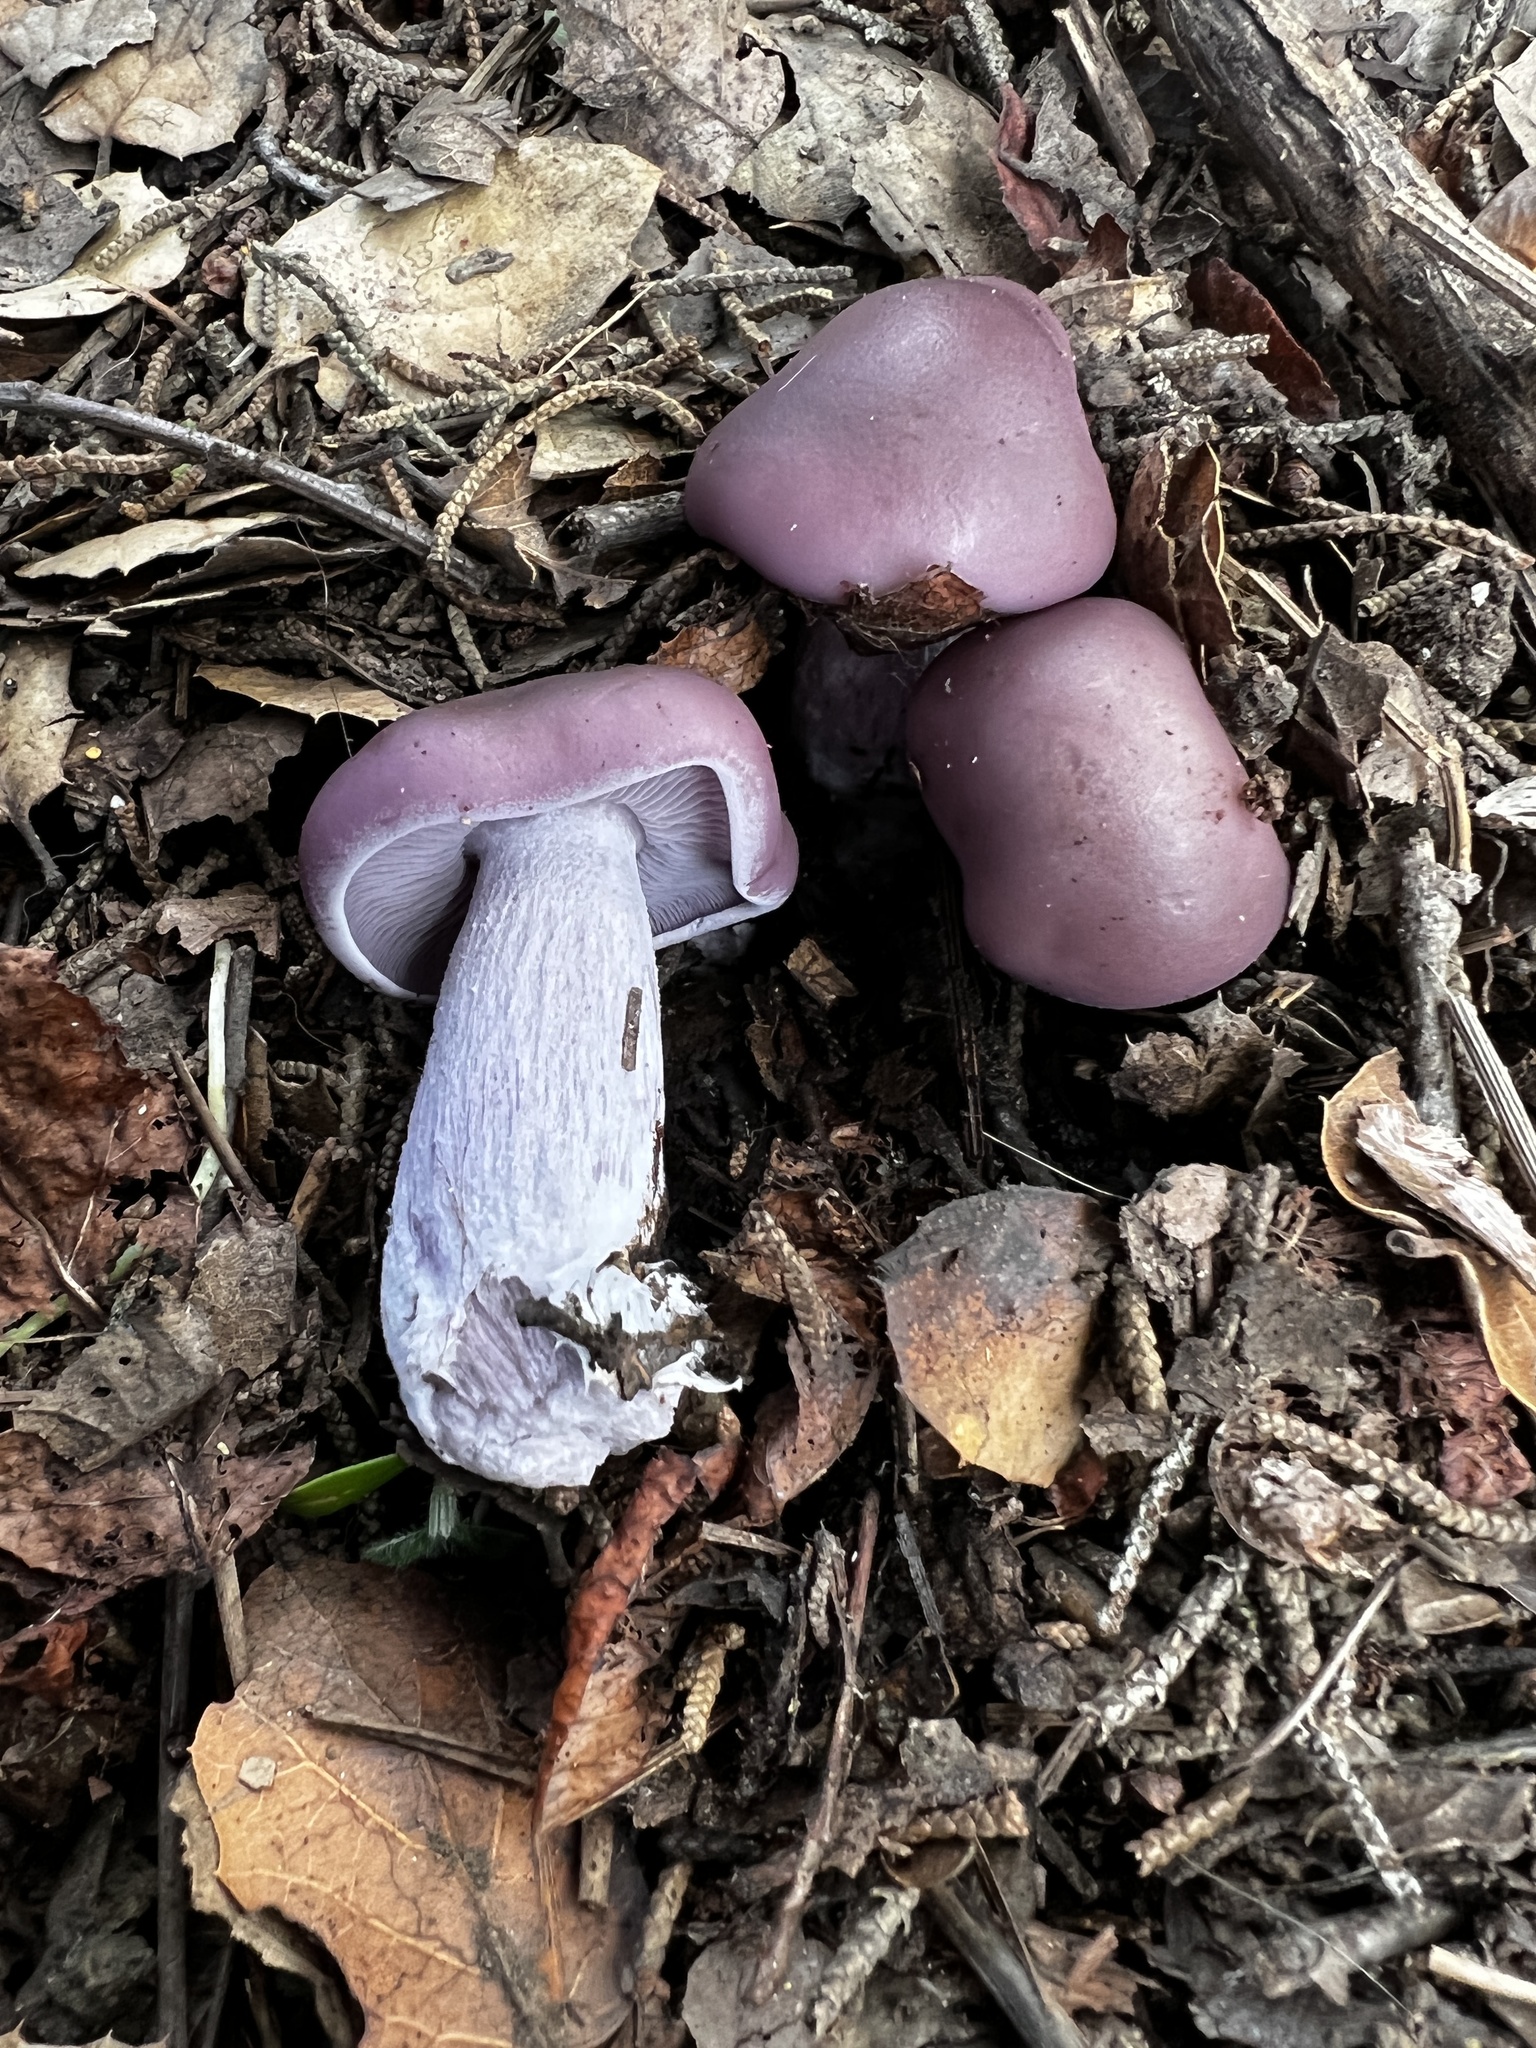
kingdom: Fungi
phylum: Basidiomycota
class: Agaricomycetes
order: Agaricales
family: Tricholomataceae
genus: Collybia
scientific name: Collybia
